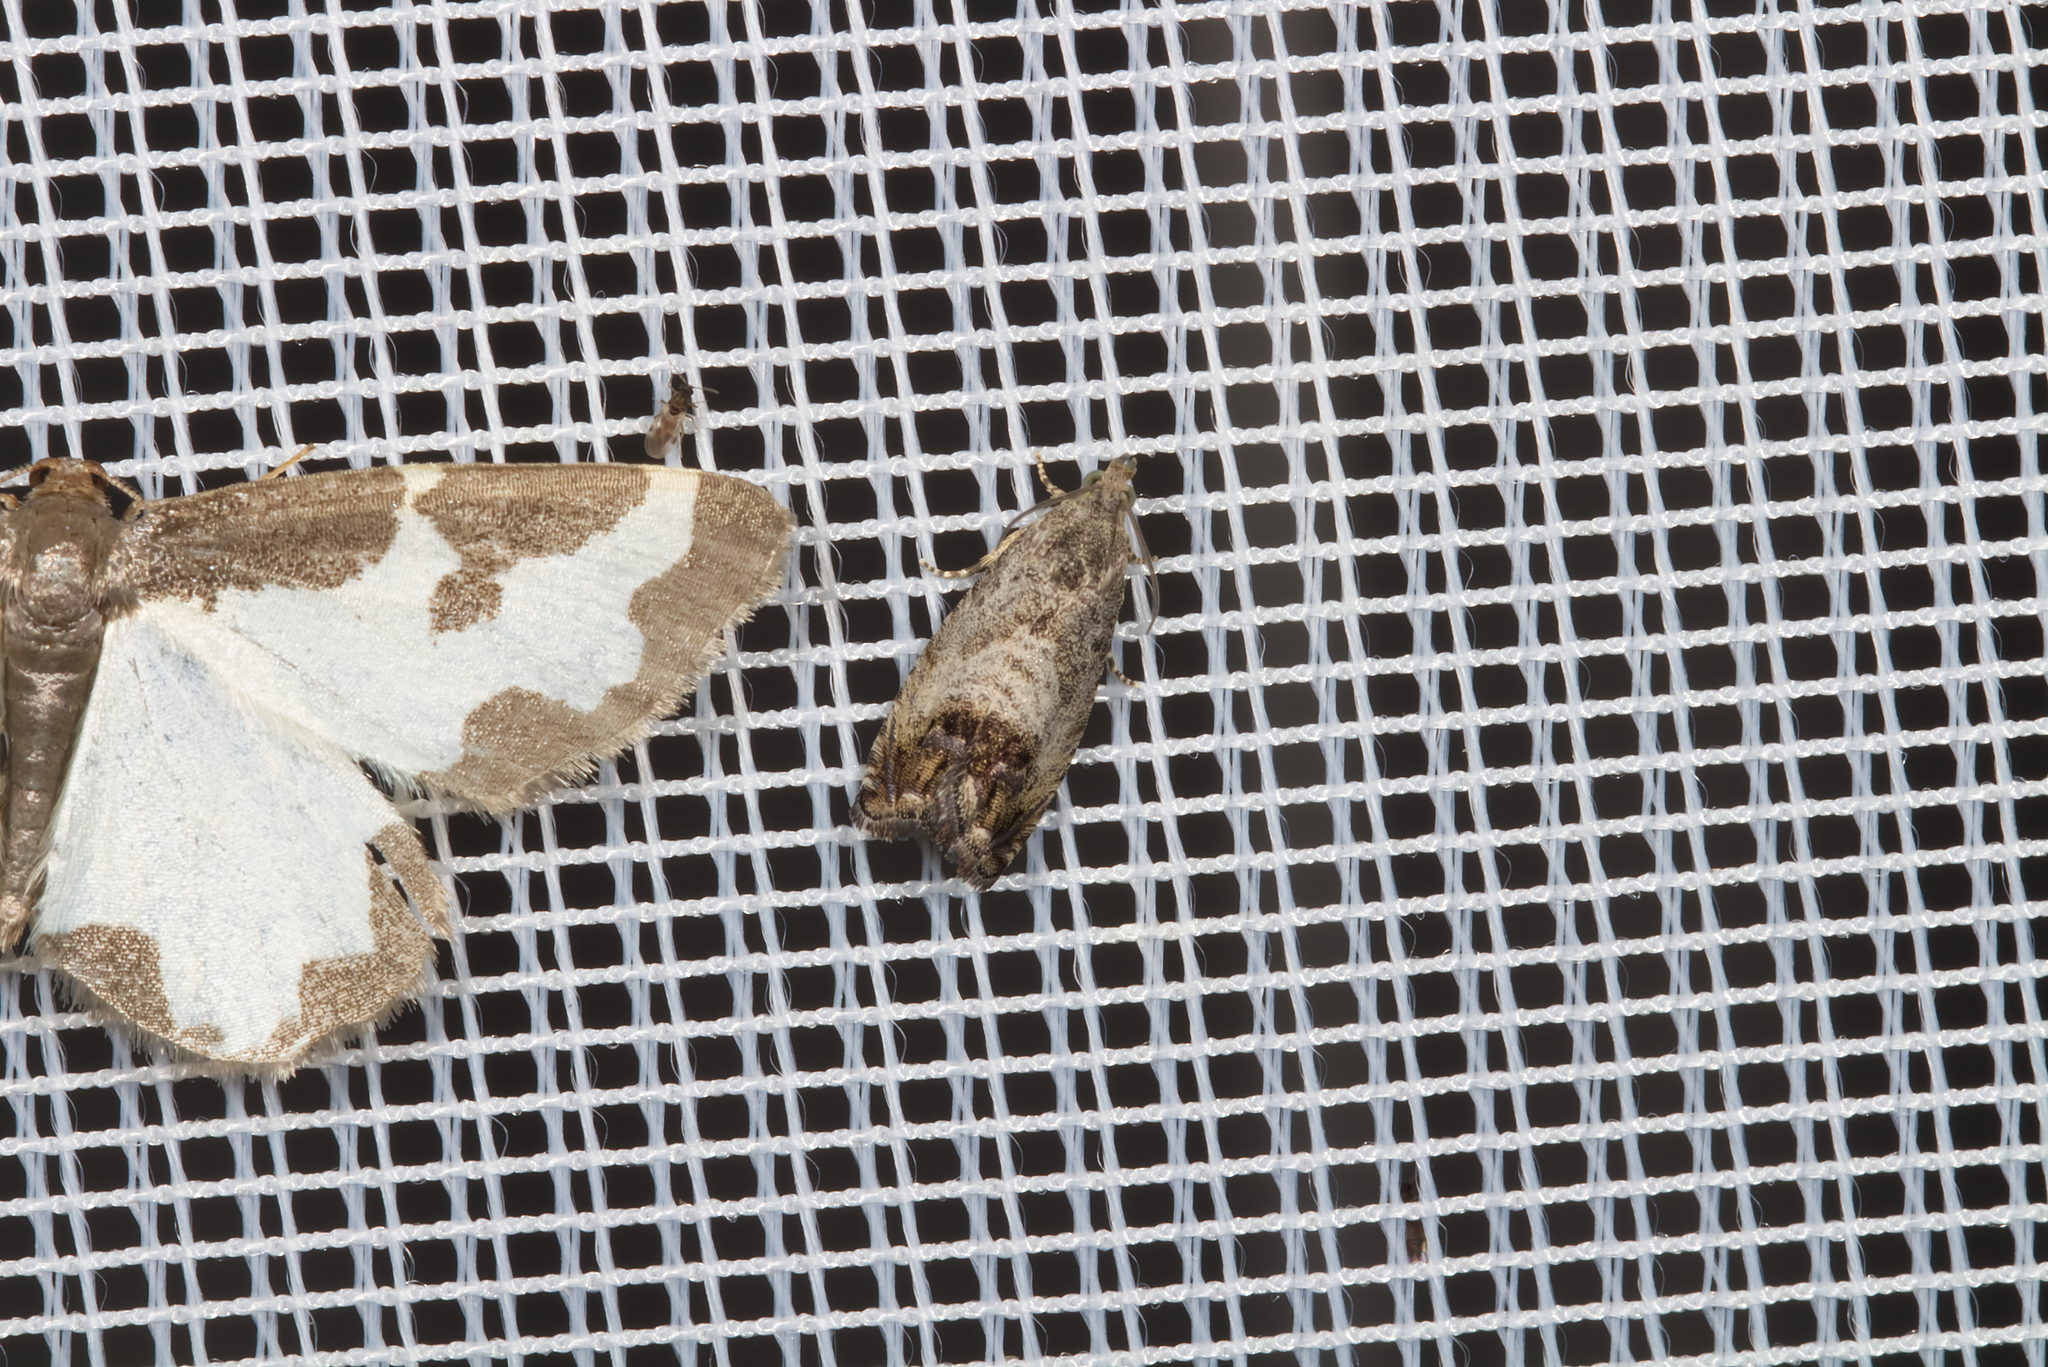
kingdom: Animalia
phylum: Arthropoda
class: Insecta
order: Lepidoptera
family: Tortricidae
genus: Cydia
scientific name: Cydia pomonella
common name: Codling moth
